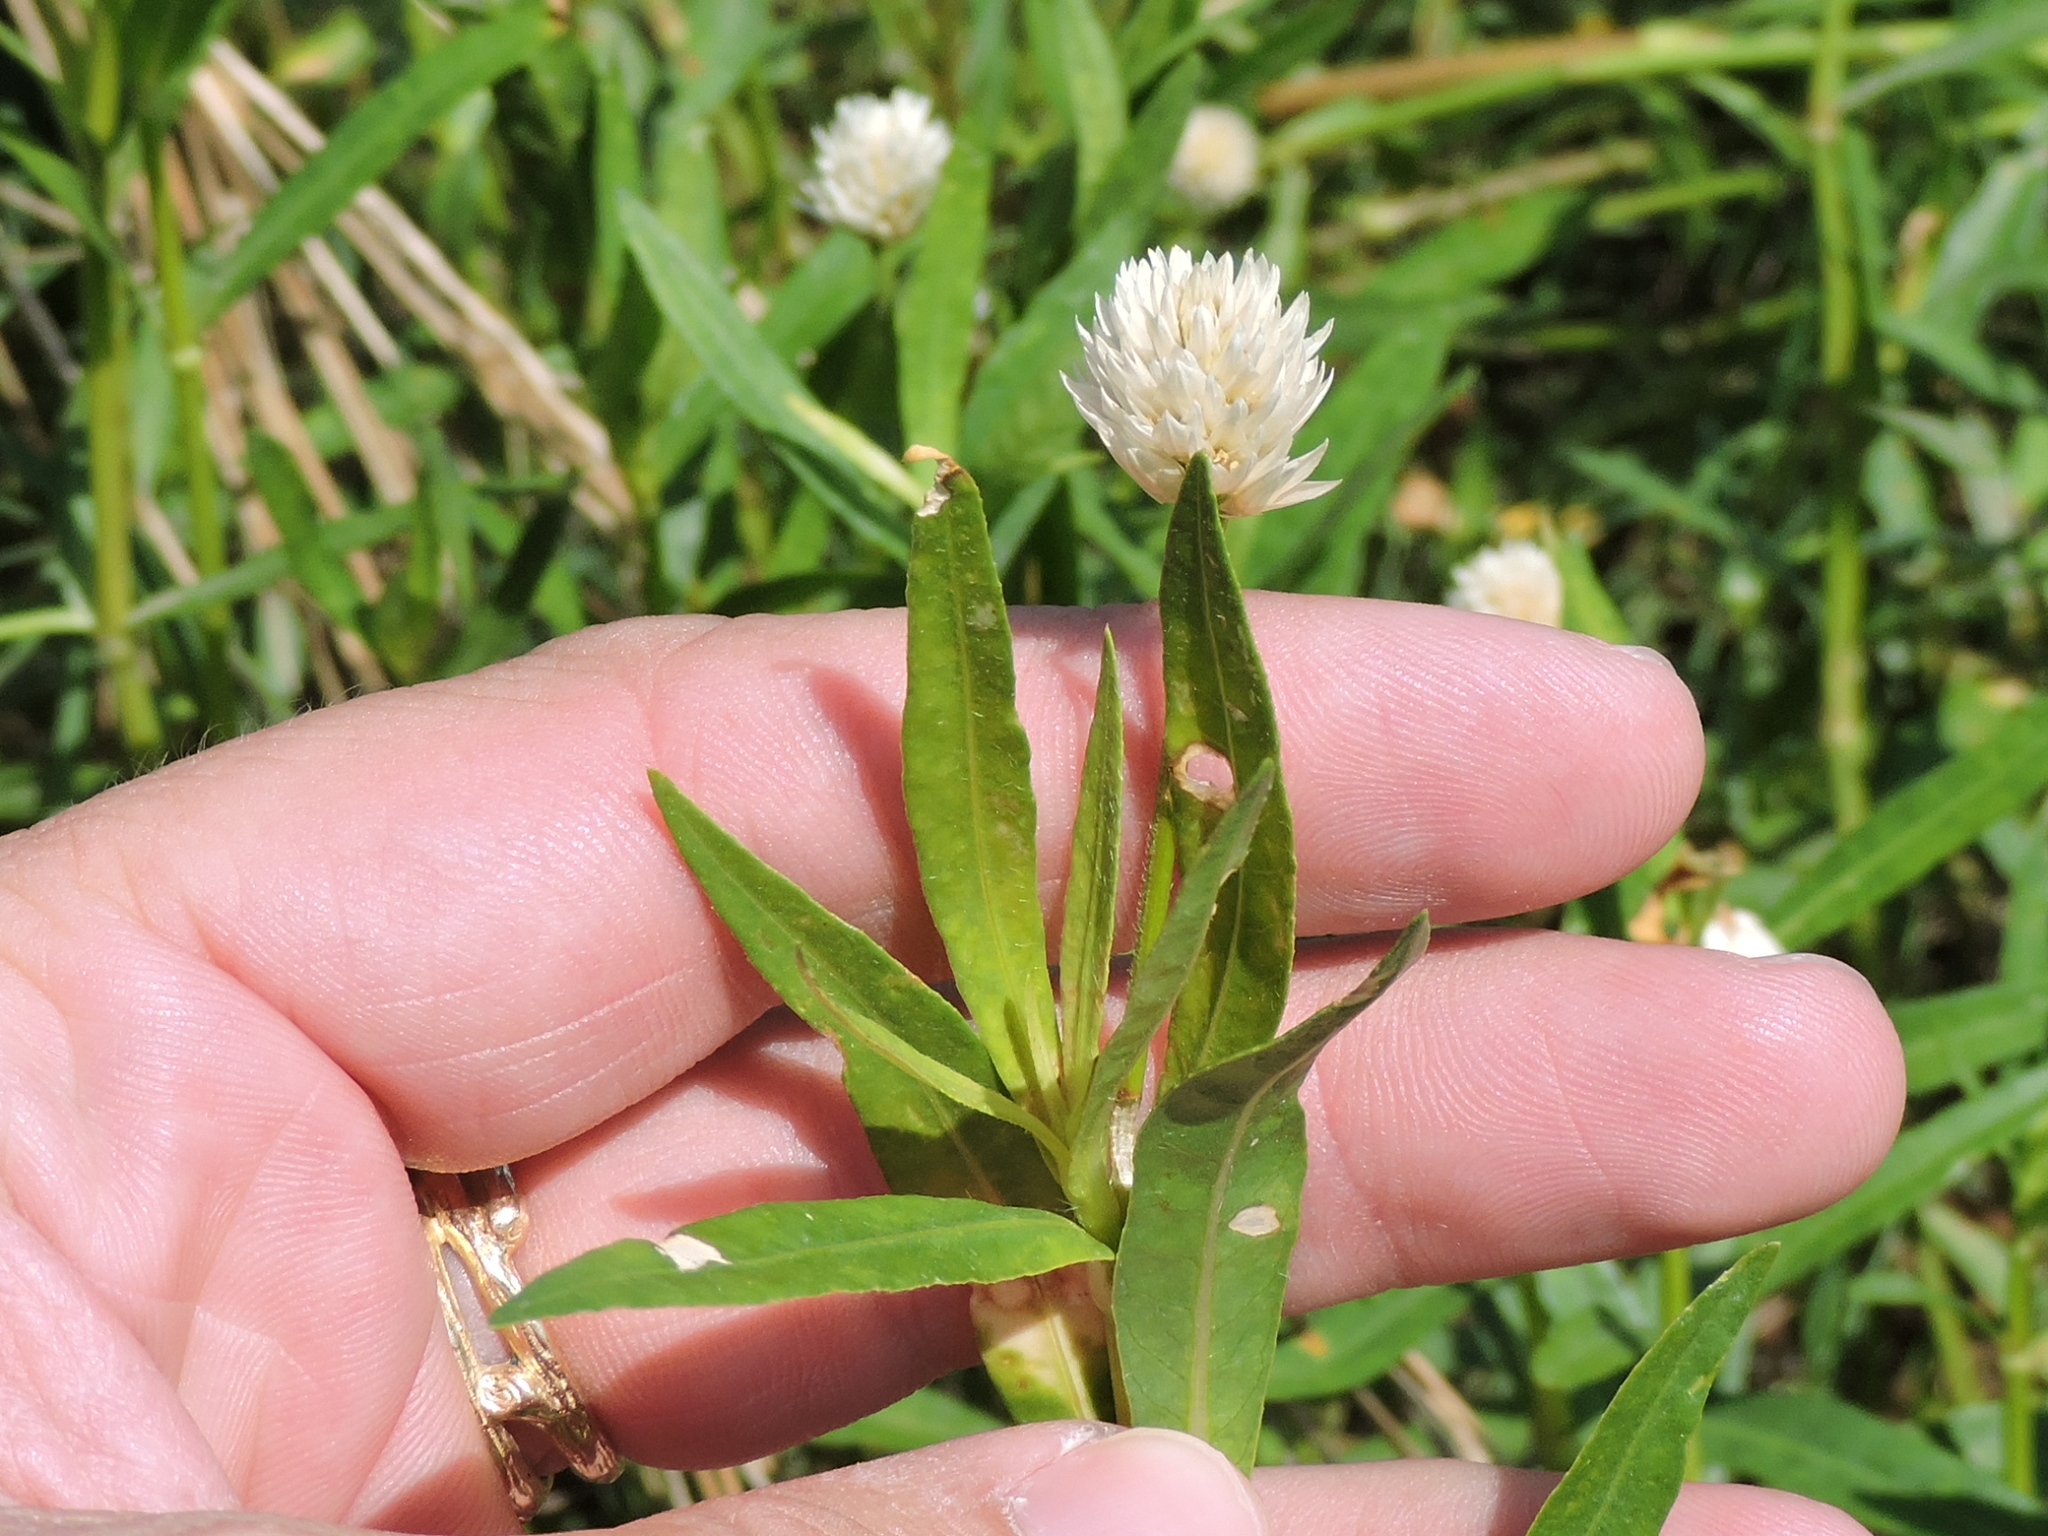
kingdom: Plantae
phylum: Tracheophyta
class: Magnoliopsida
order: Caryophyllales
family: Amaranthaceae
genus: Alternanthera
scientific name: Alternanthera philoxeroides
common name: Alligatorweed
